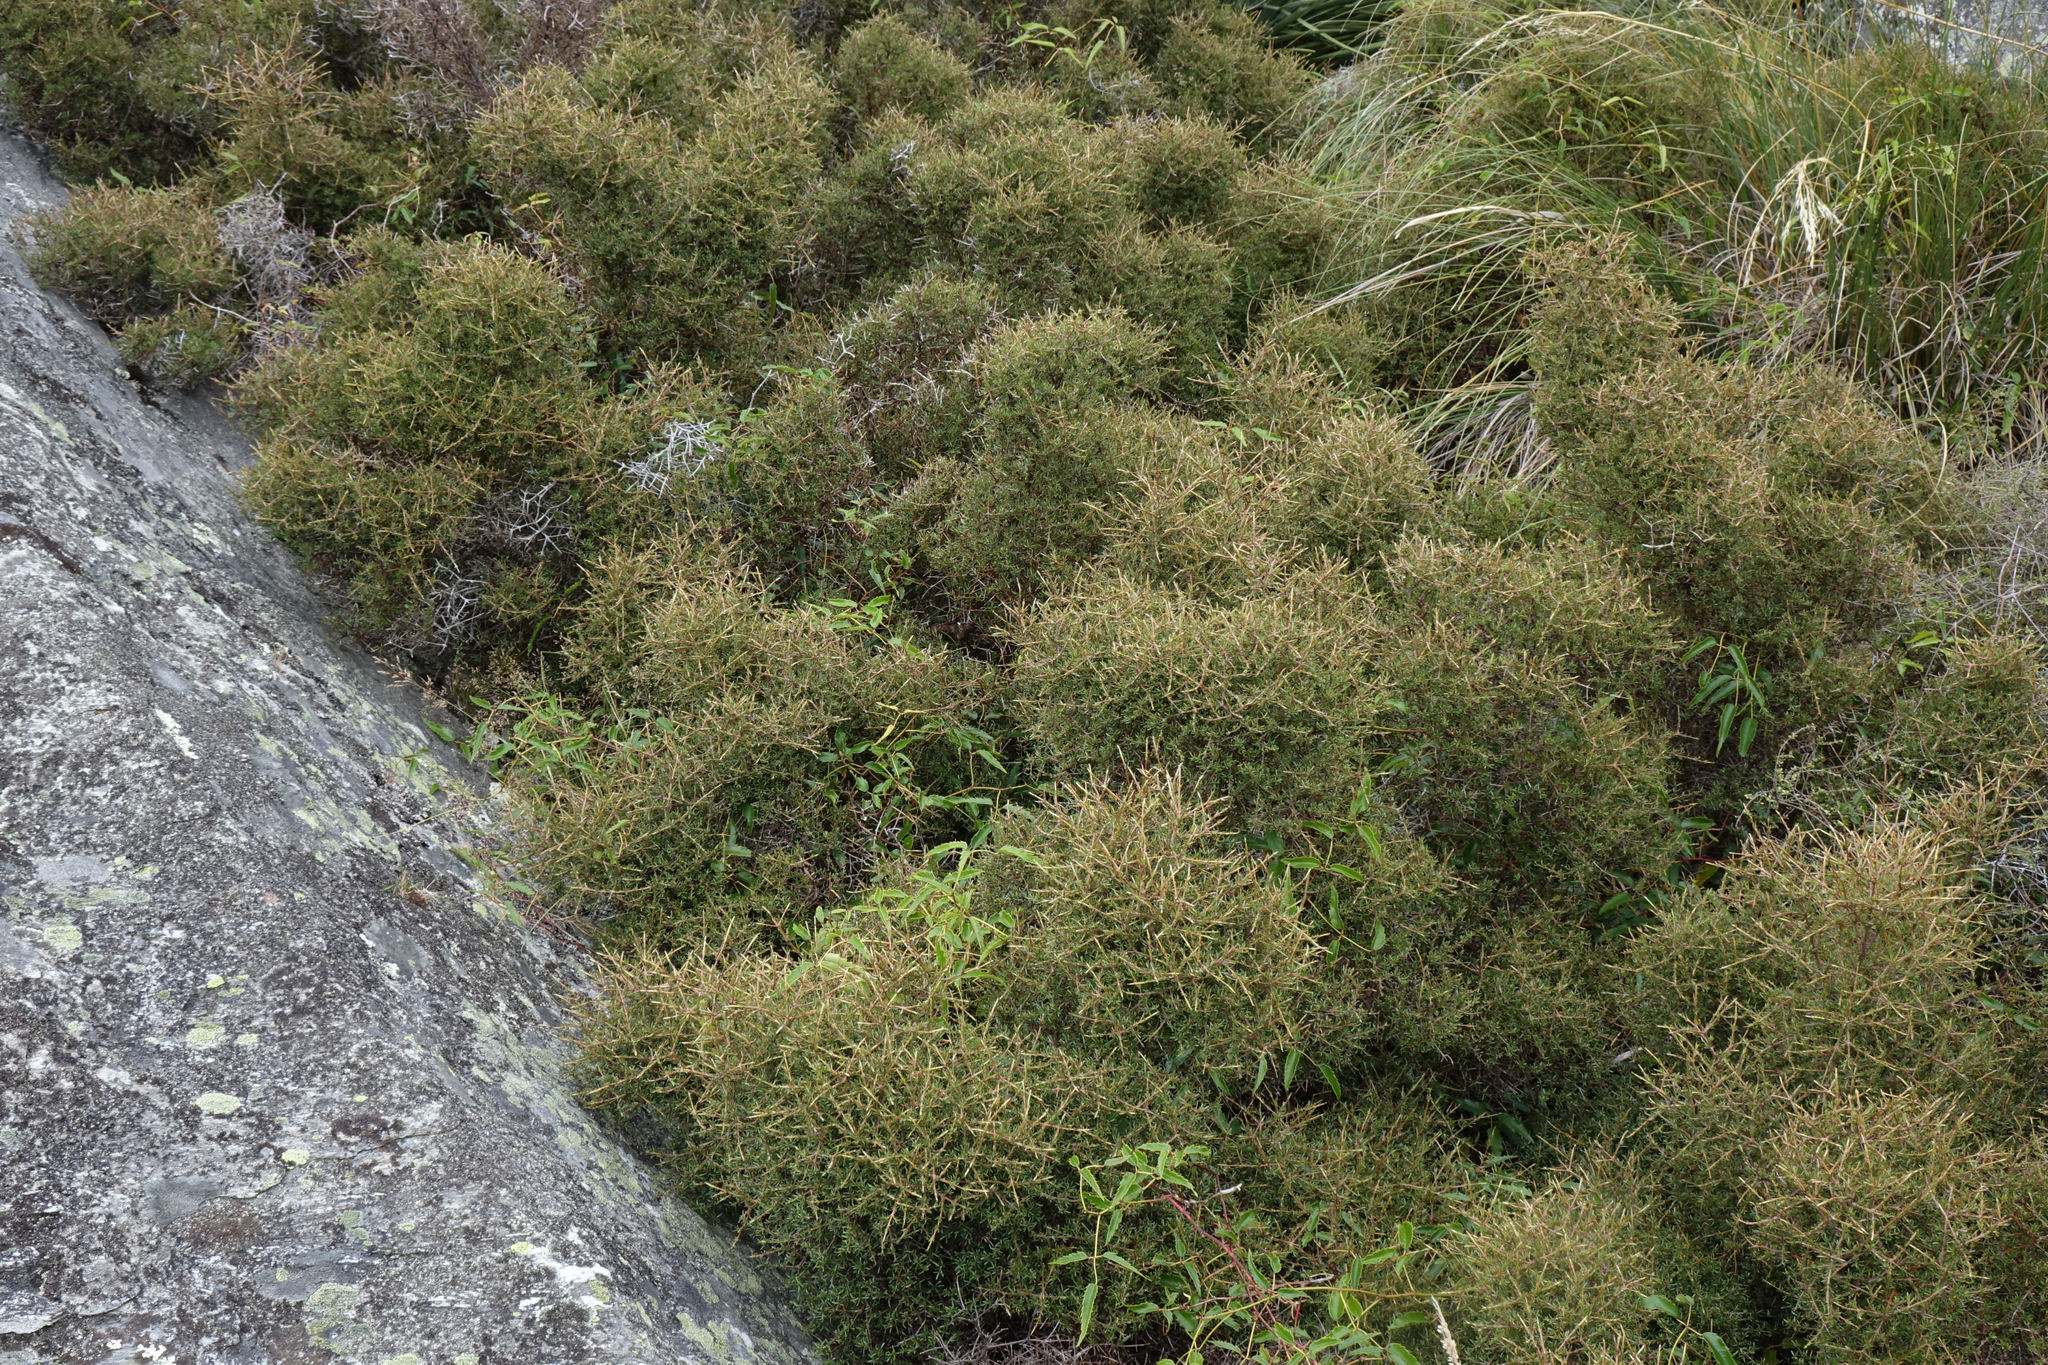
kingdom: Plantae
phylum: Tracheophyta
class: Magnoliopsida
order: Gentianales
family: Rubiaceae
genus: Coprosma
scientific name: Coprosma rugosa
